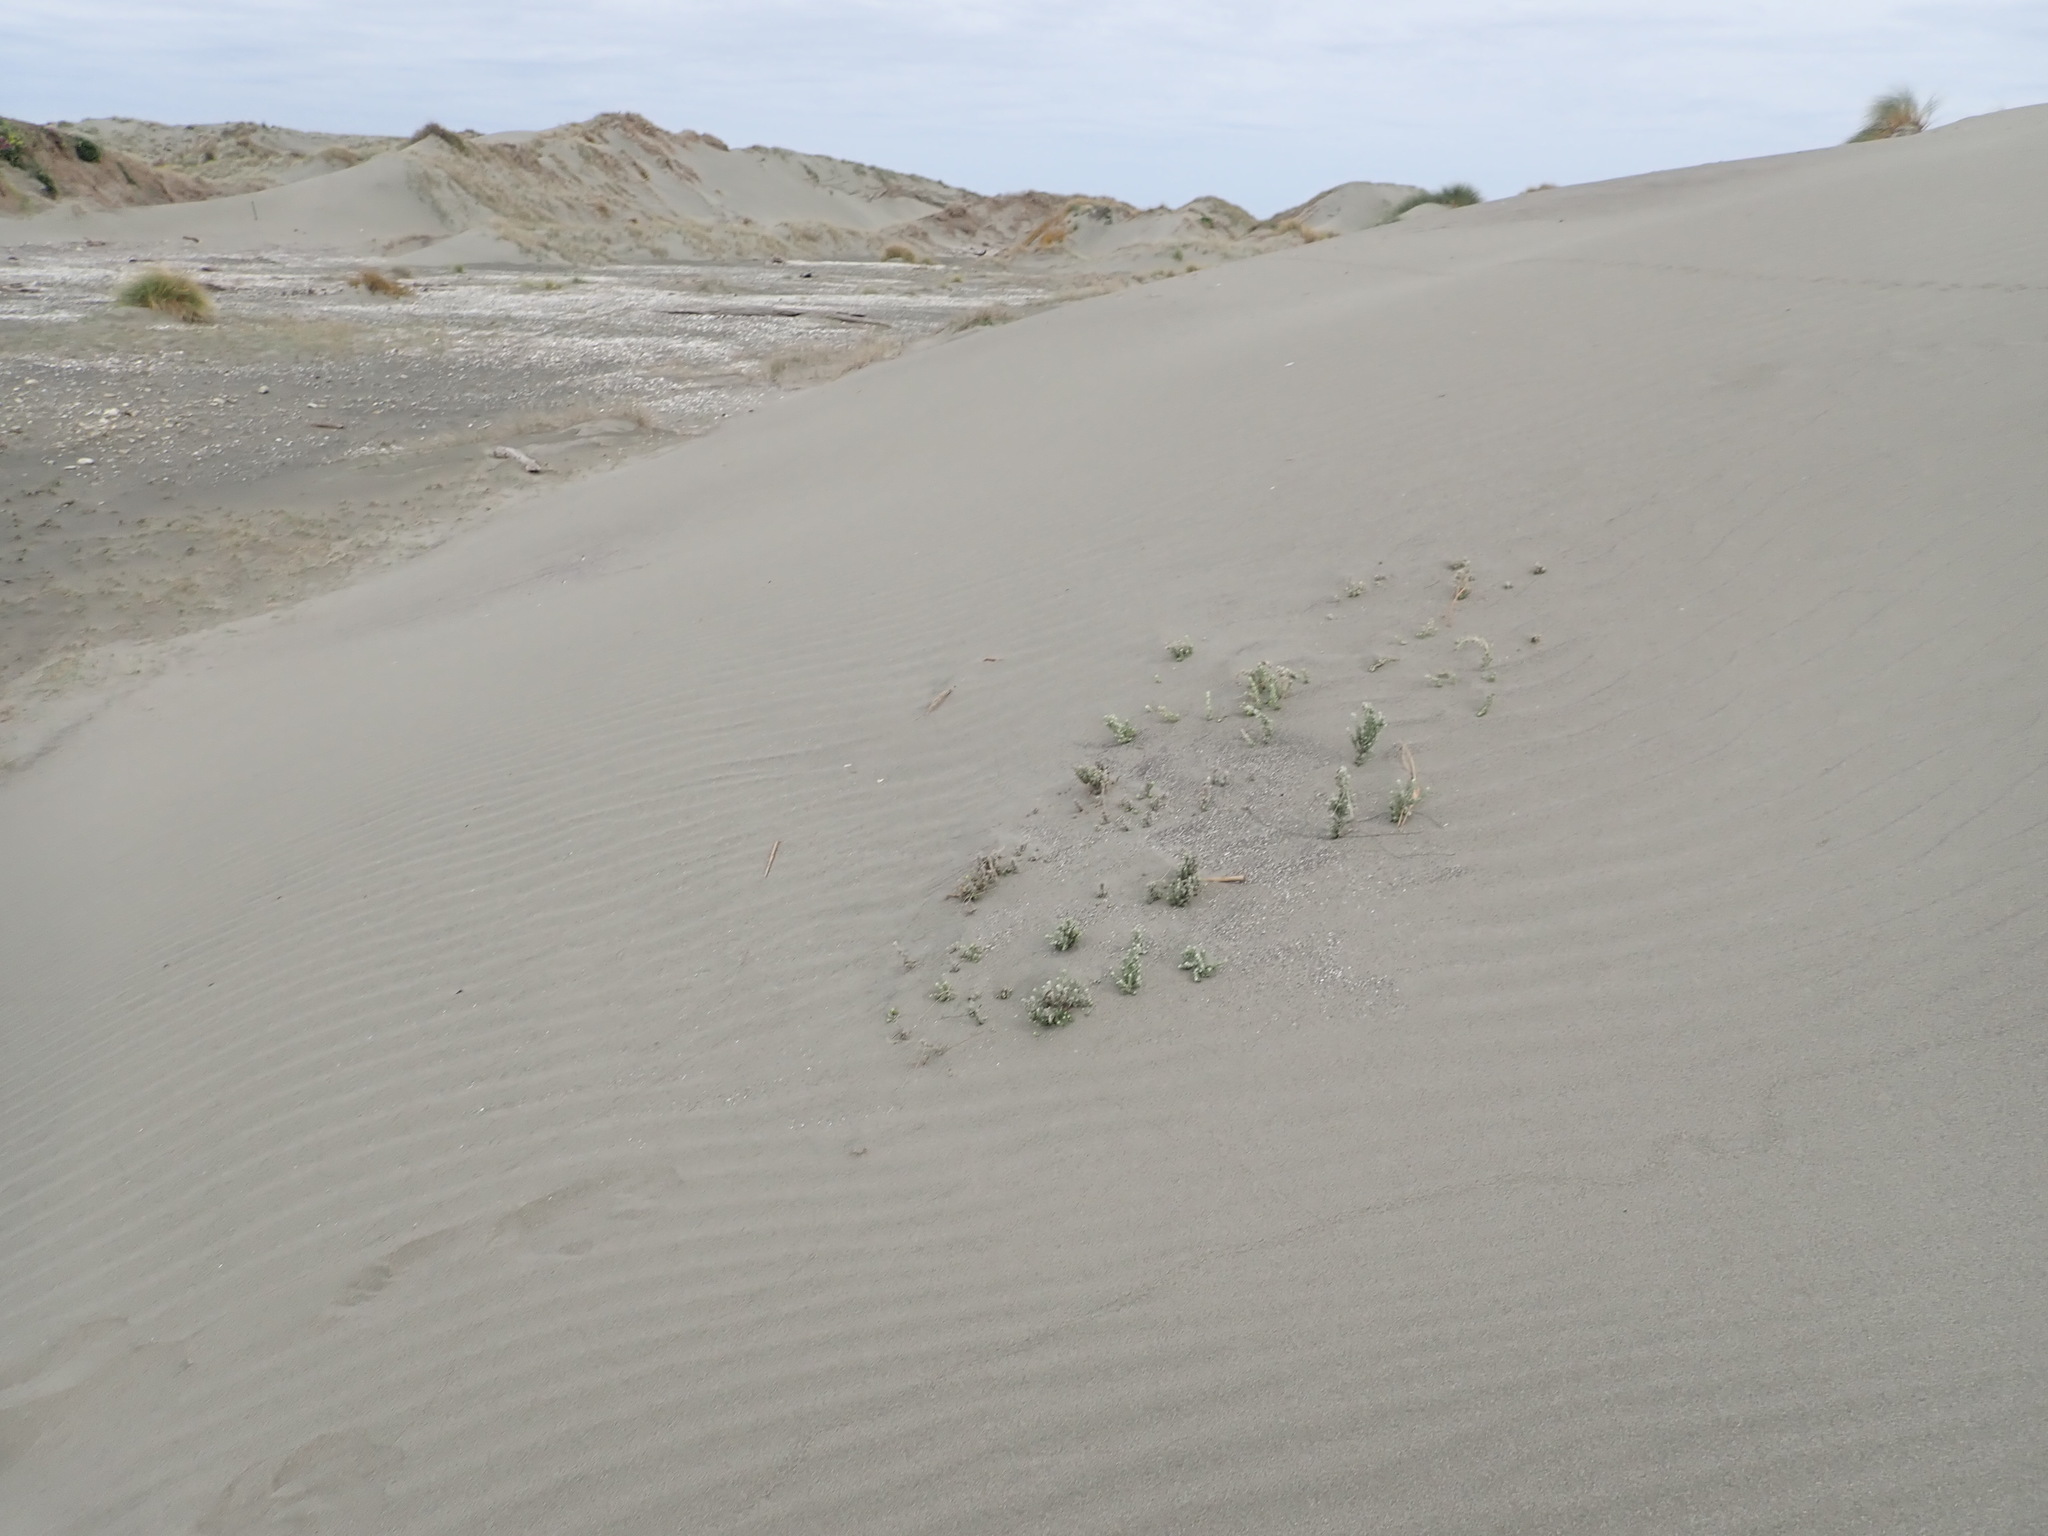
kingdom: Plantae
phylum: Tracheophyta
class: Magnoliopsida
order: Asterales
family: Asteraceae
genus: Ozothamnus
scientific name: Ozothamnus leptophyllus
